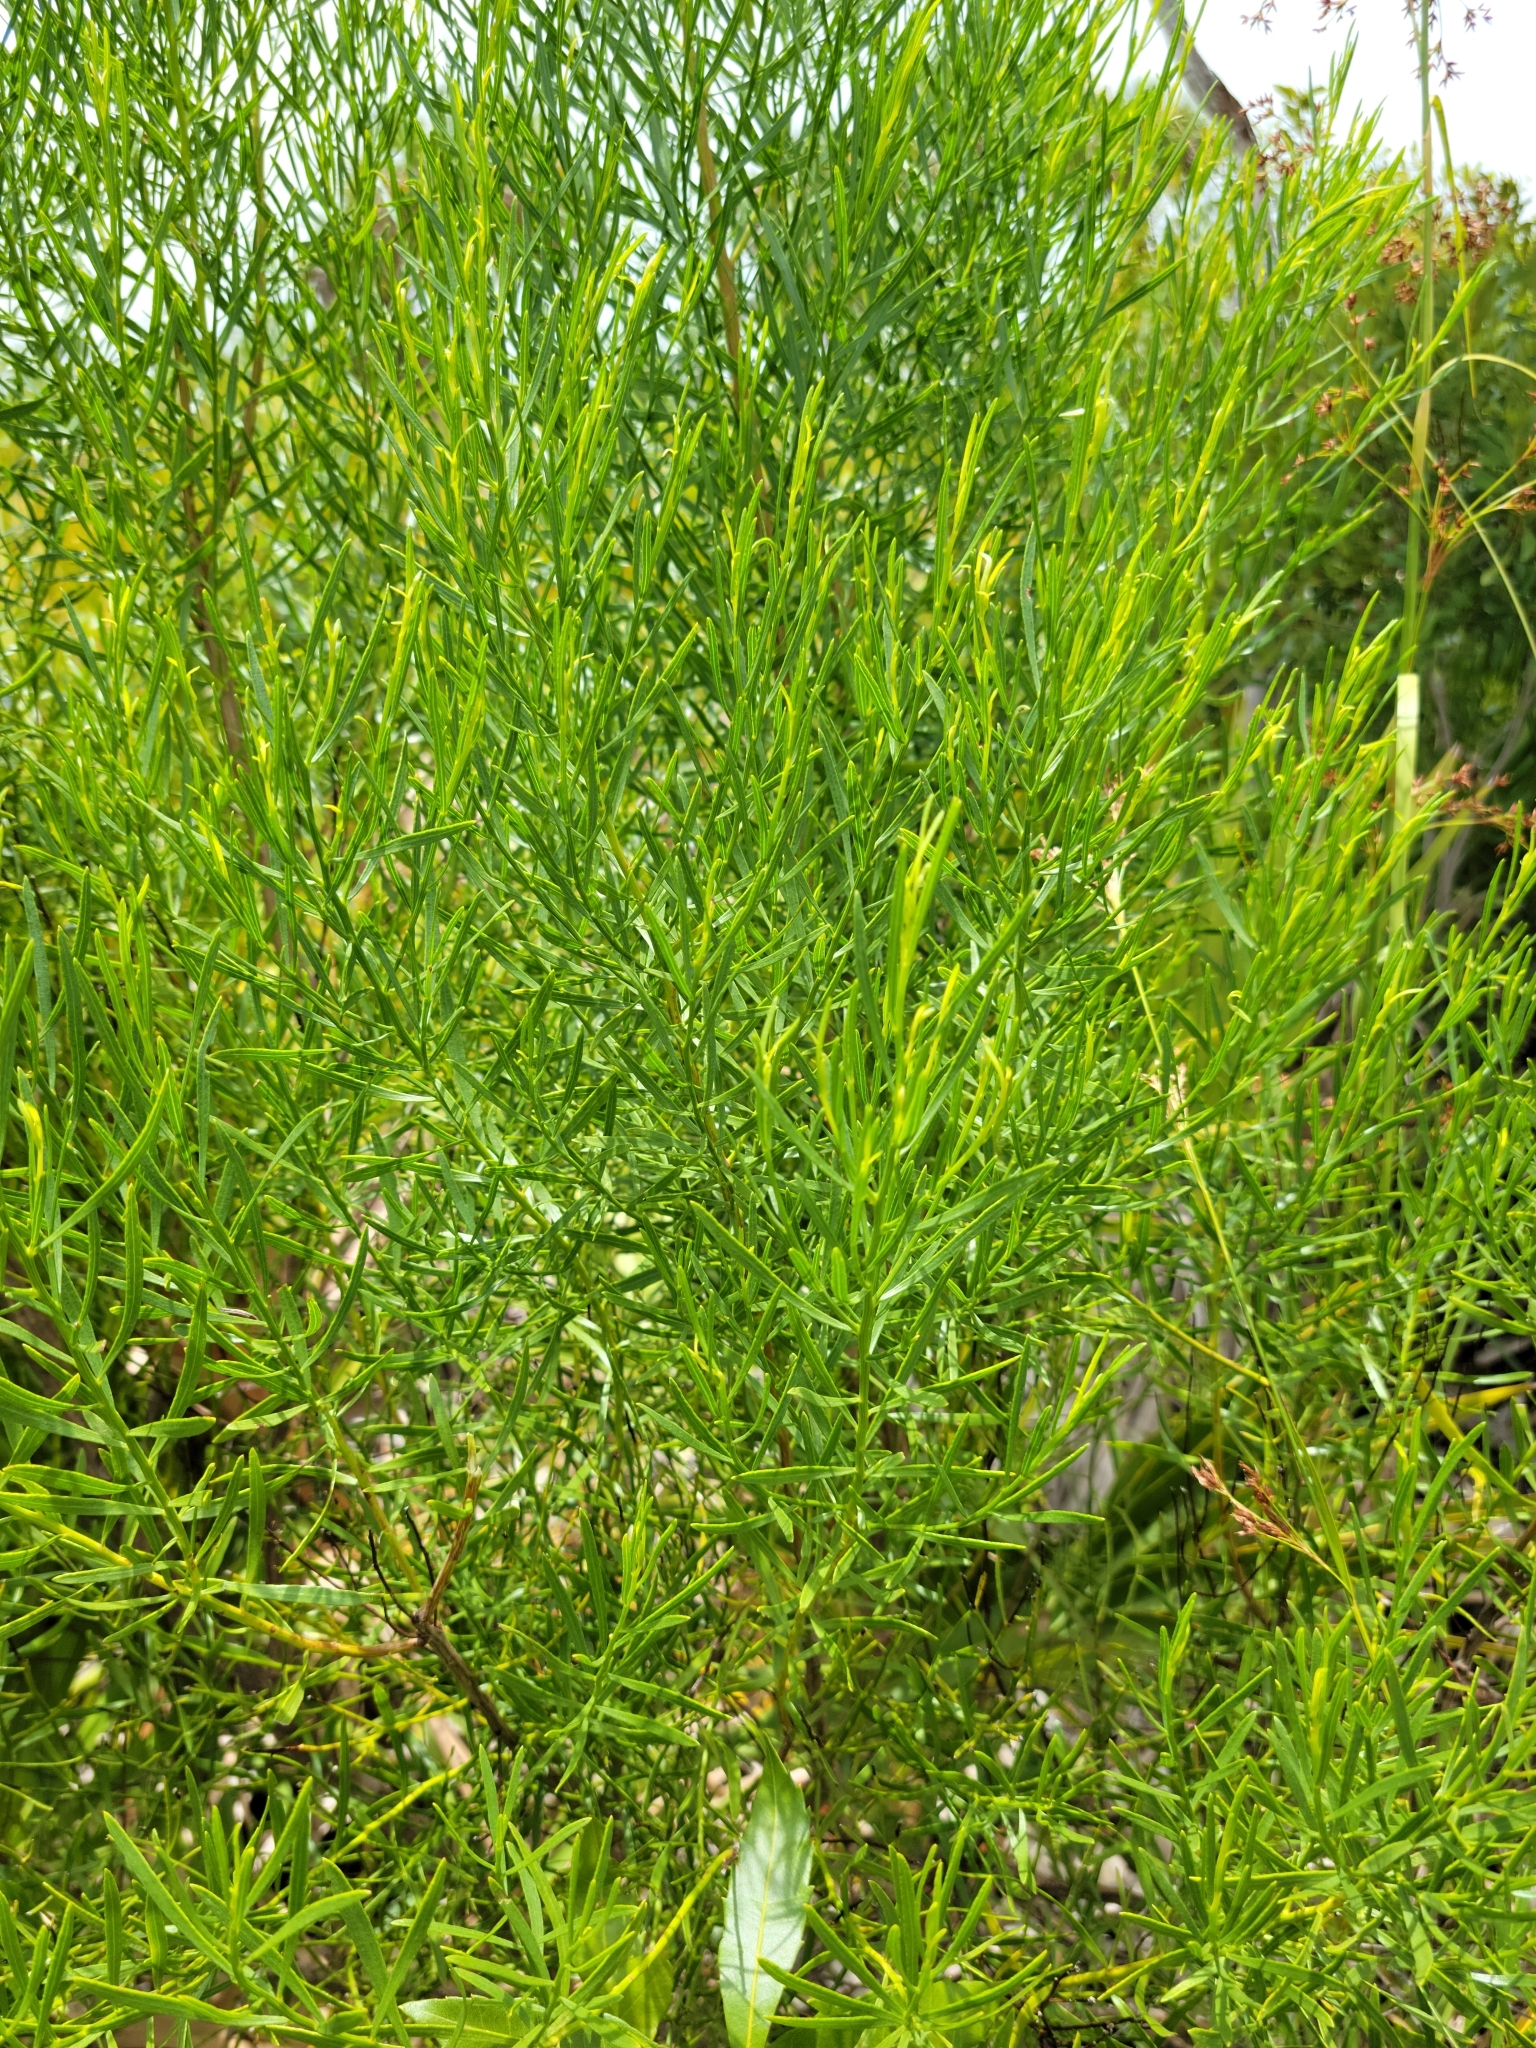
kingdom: Plantae
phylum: Tracheophyta
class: Magnoliopsida
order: Asterales
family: Asteraceae
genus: Baccharis
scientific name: Baccharis angustifolia
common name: Narrow-leaf baccharis
